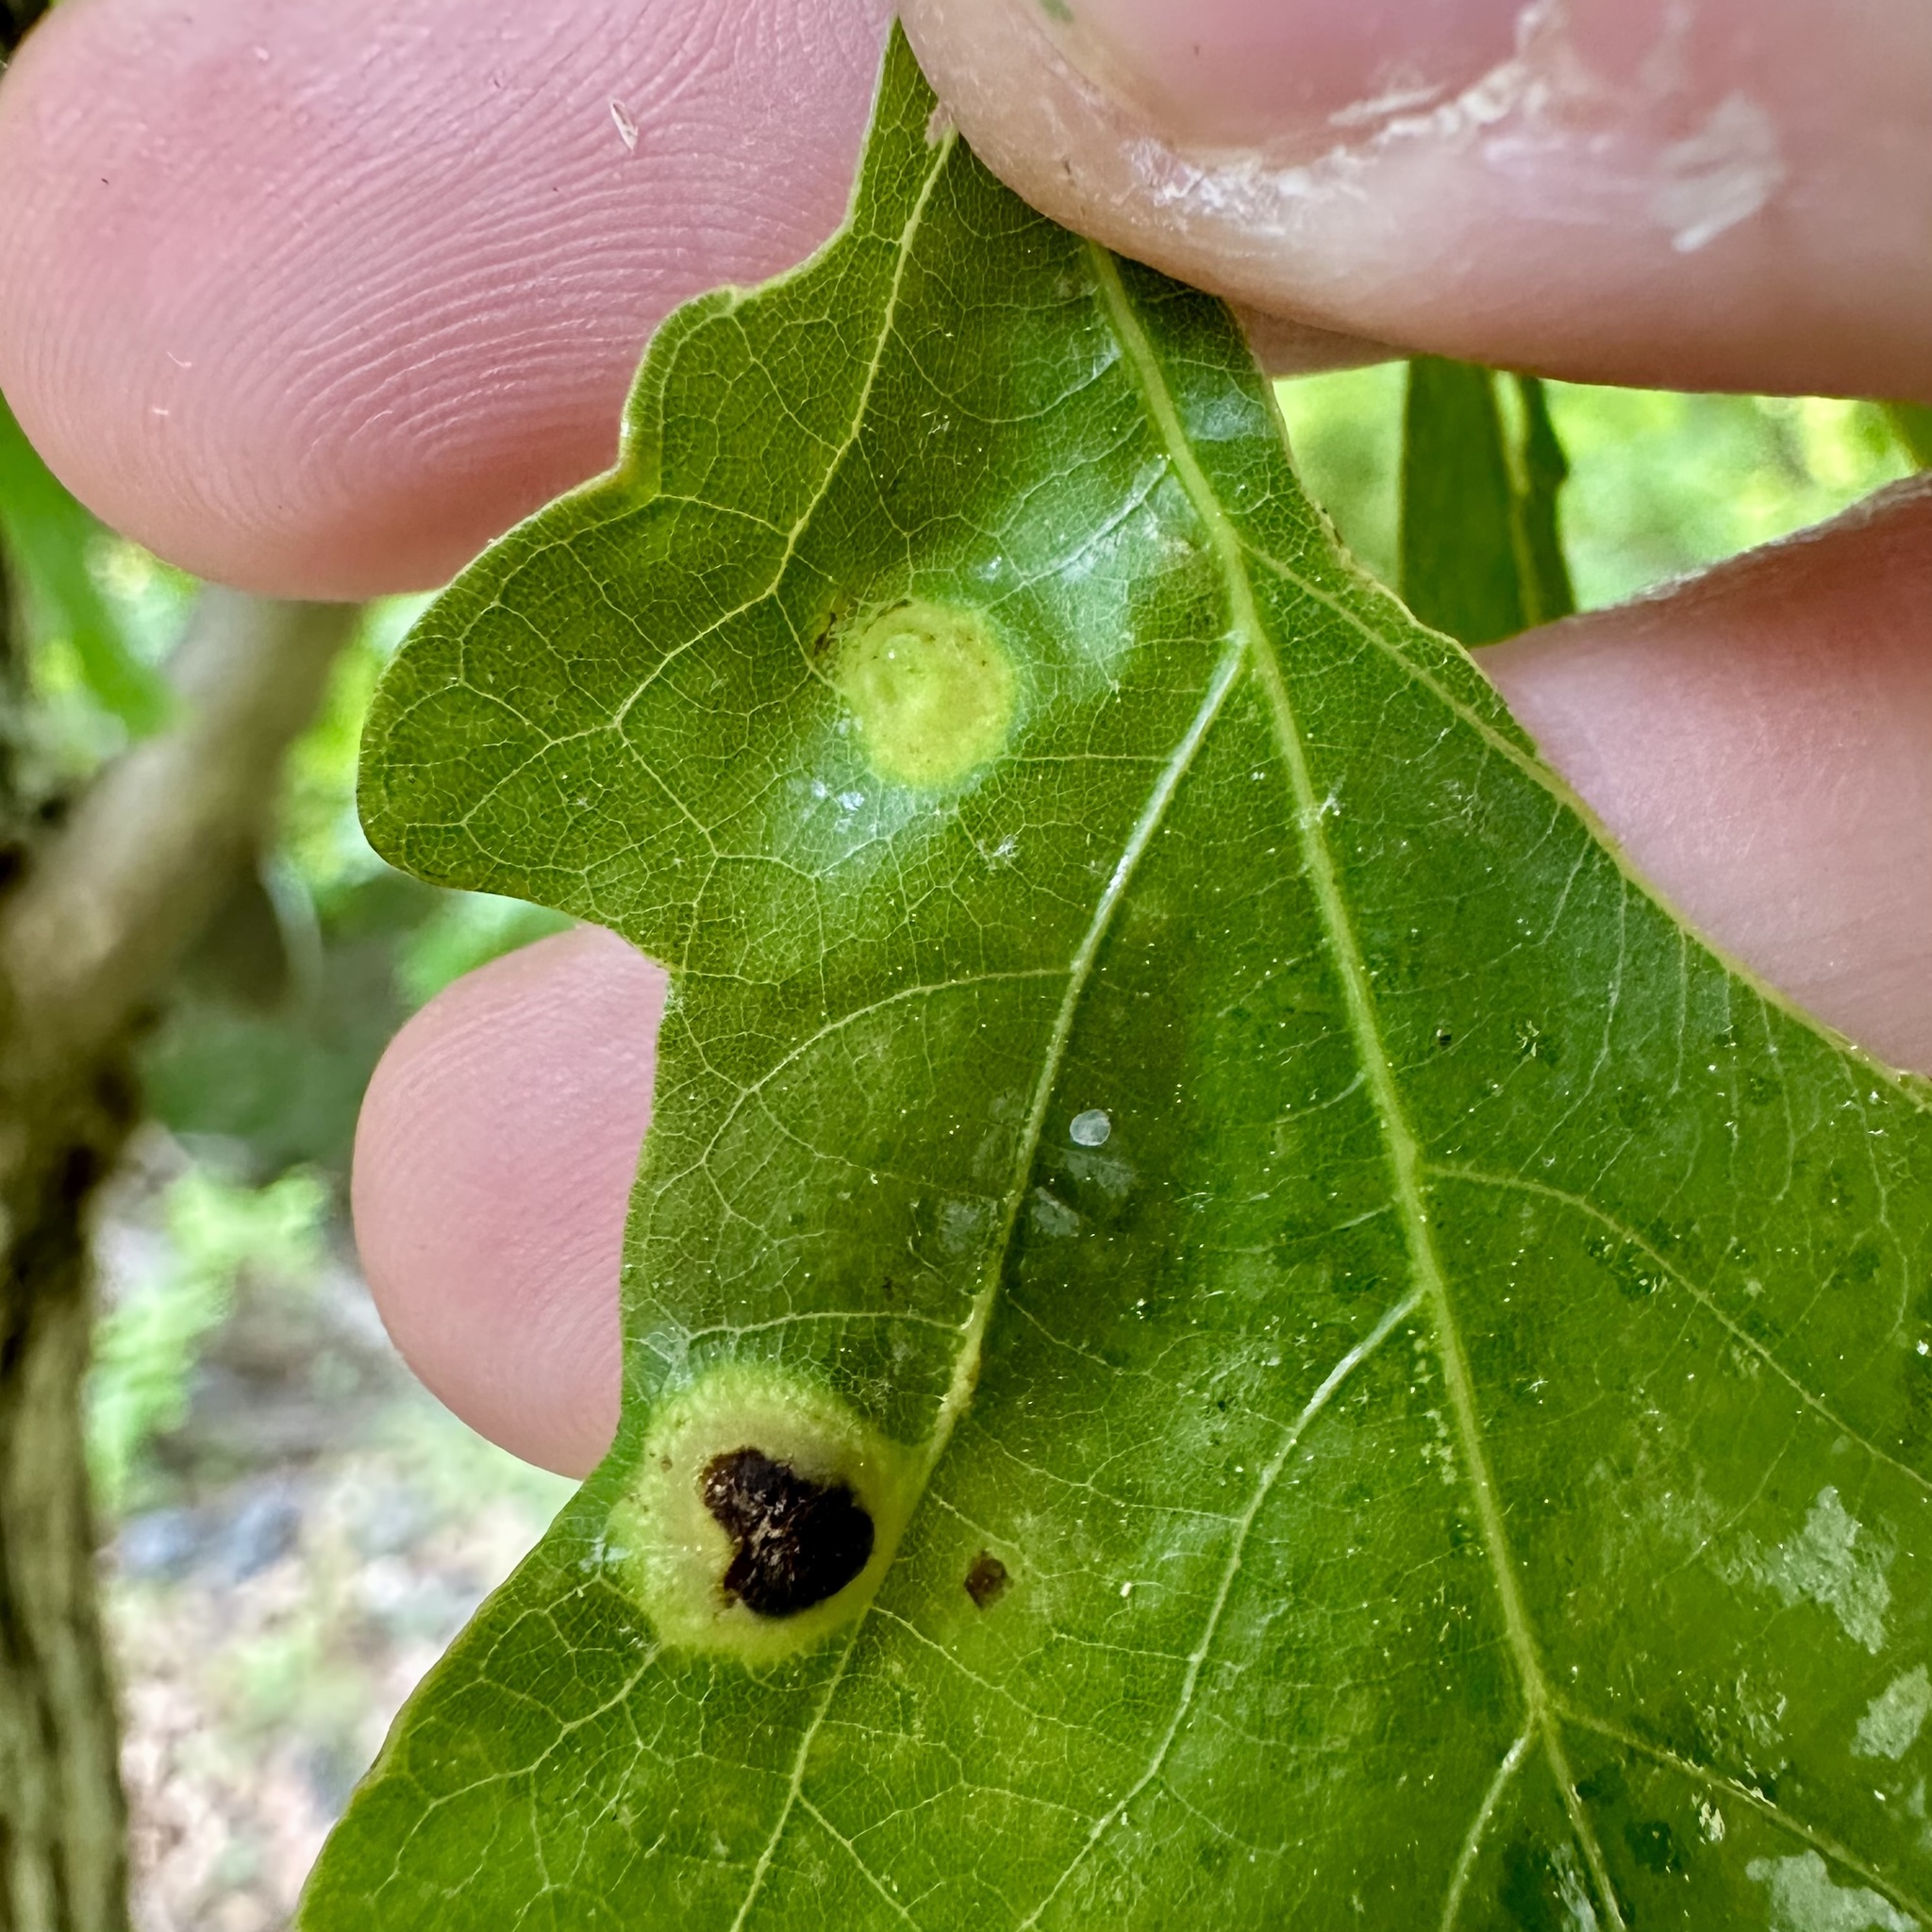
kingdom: Animalia
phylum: Arthropoda
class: Insecta
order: Hymenoptera
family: Cynipidae
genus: Callirhytis
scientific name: Callirhytis
